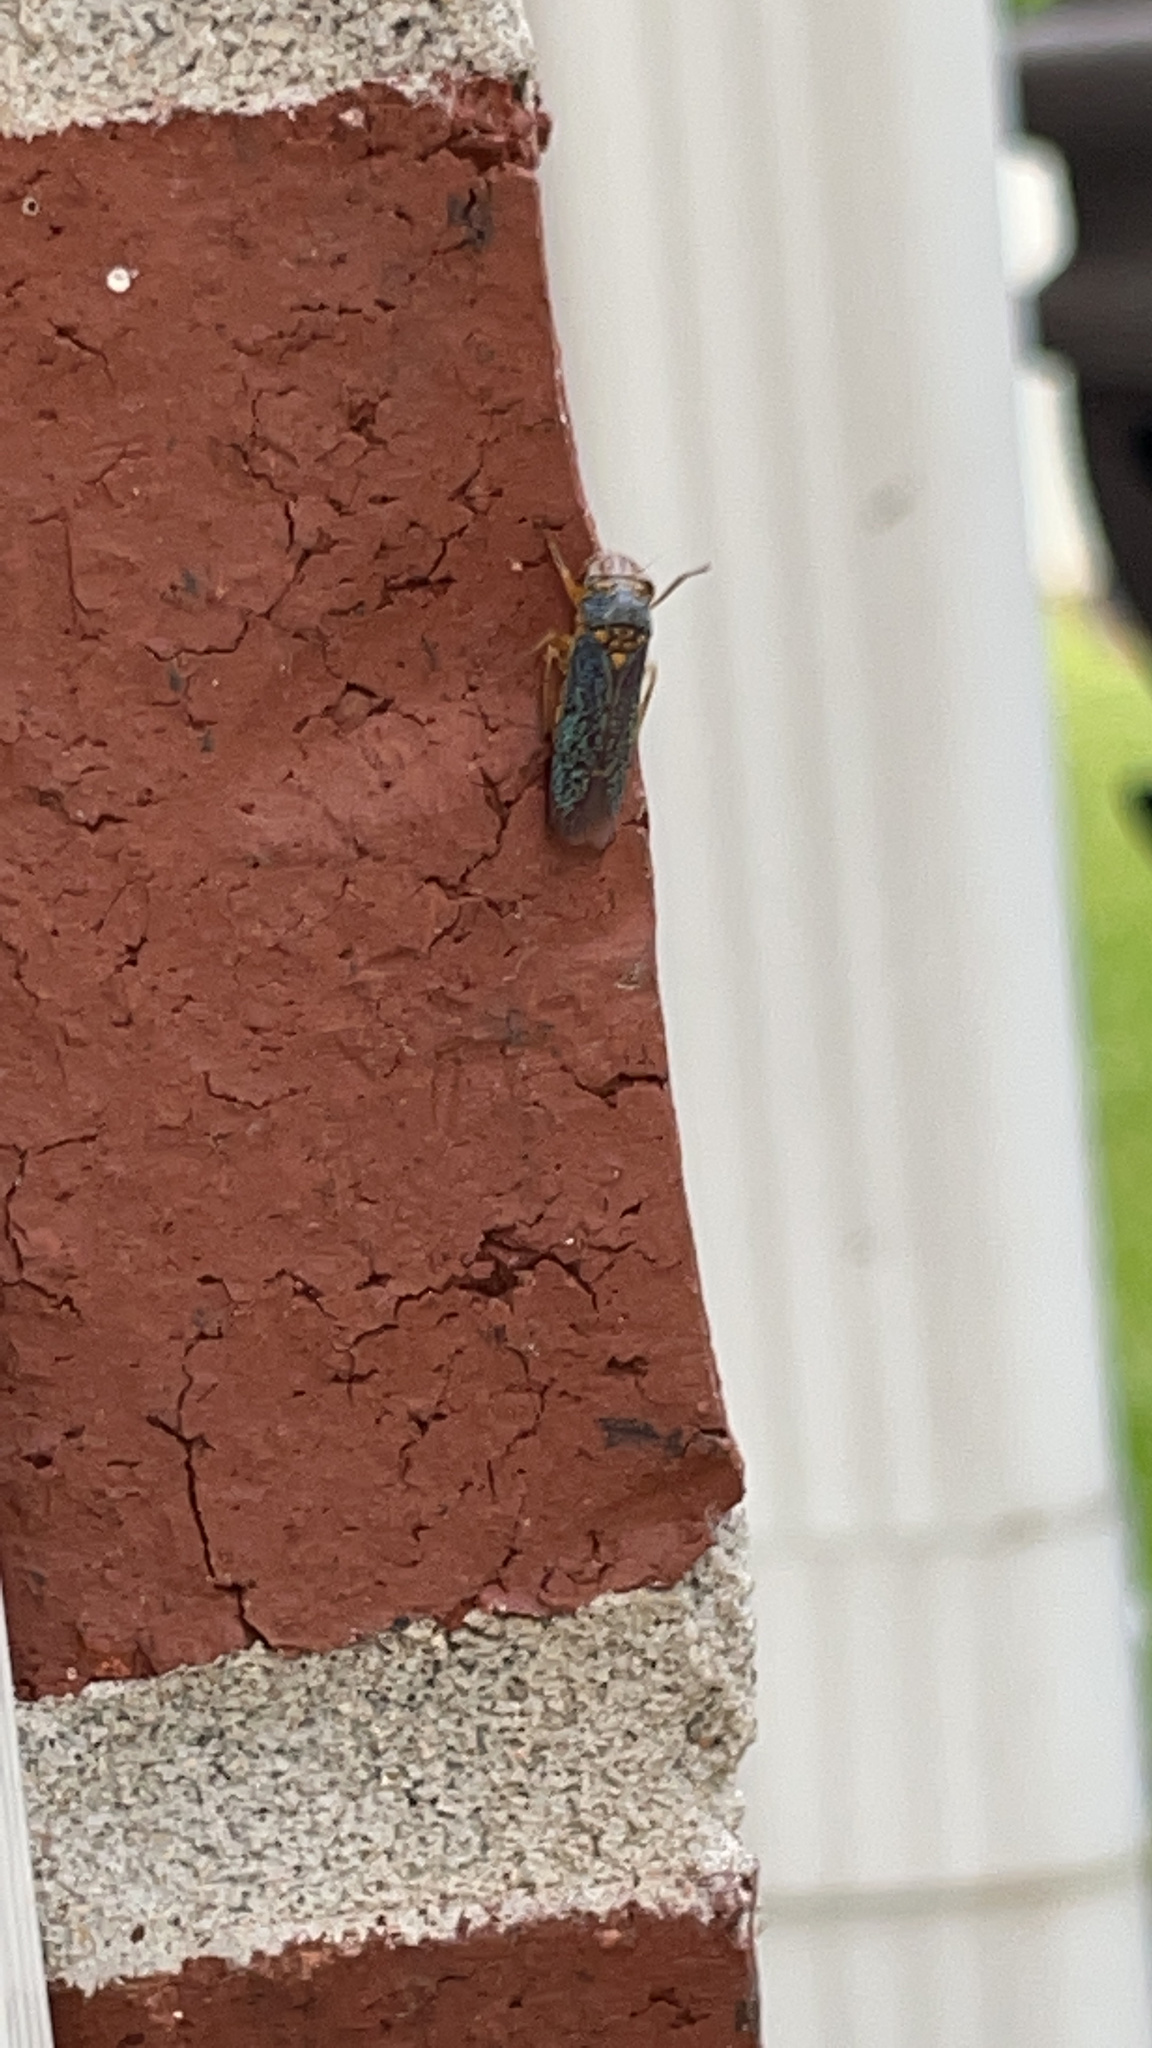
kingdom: Animalia
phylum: Arthropoda
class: Insecta
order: Hemiptera
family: Cicadellidae
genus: Oncometopia
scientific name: Oncometopia orbona
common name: Broad-headed sharpshooter
